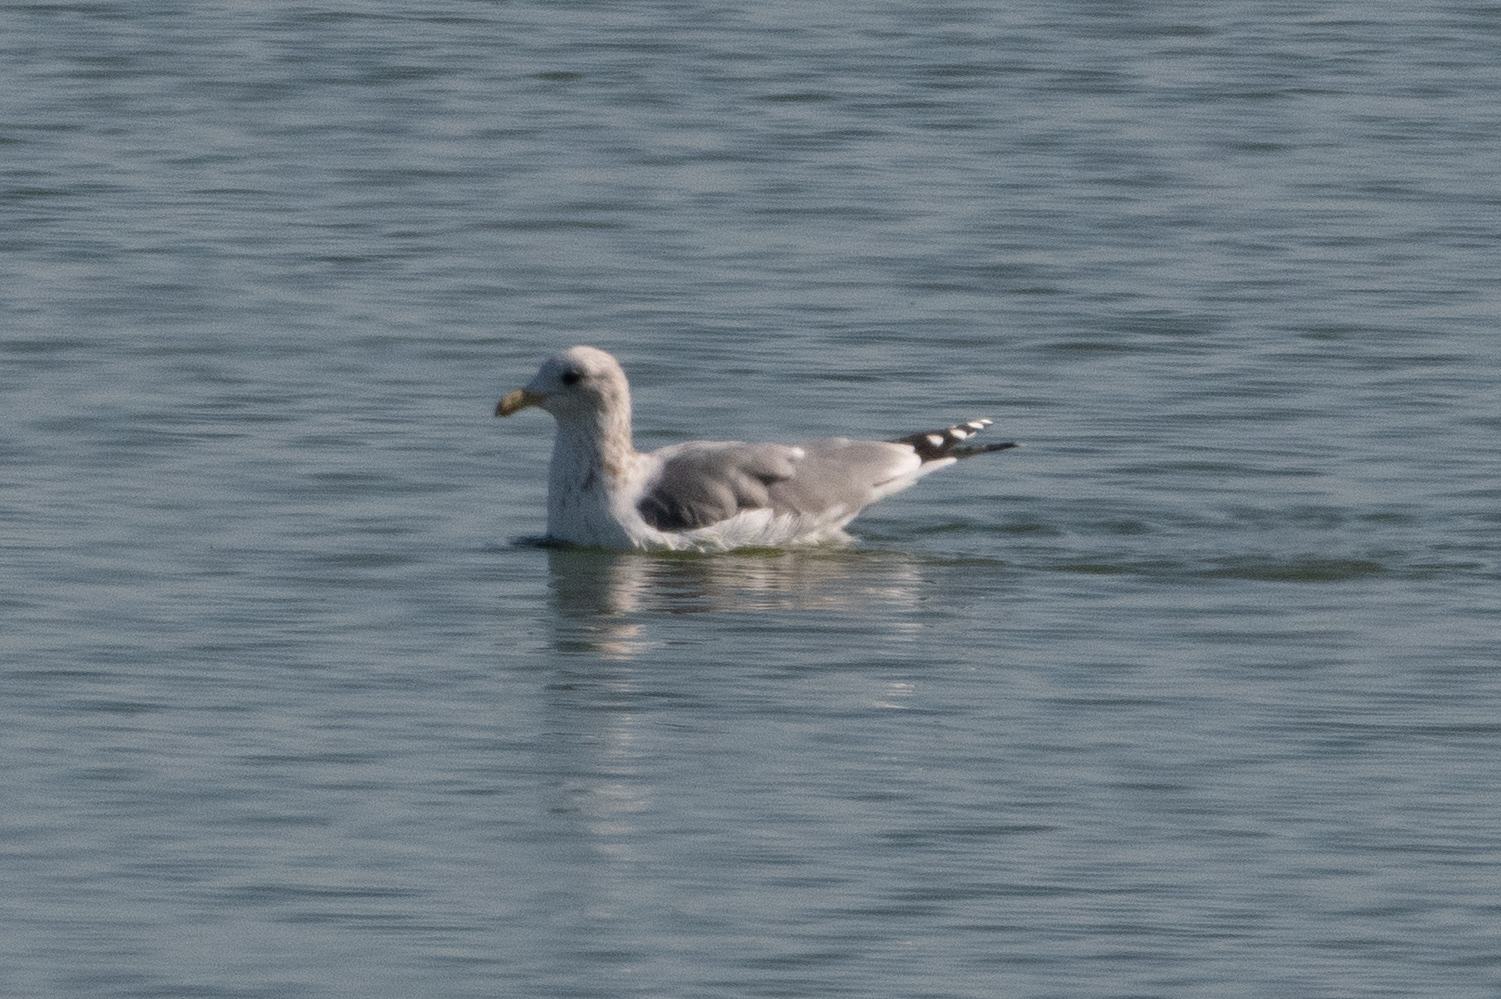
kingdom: Animalia
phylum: Chordata
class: Aves
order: Charadriiformes
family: Laridae
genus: Larus
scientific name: Larus californicus
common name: California gull
